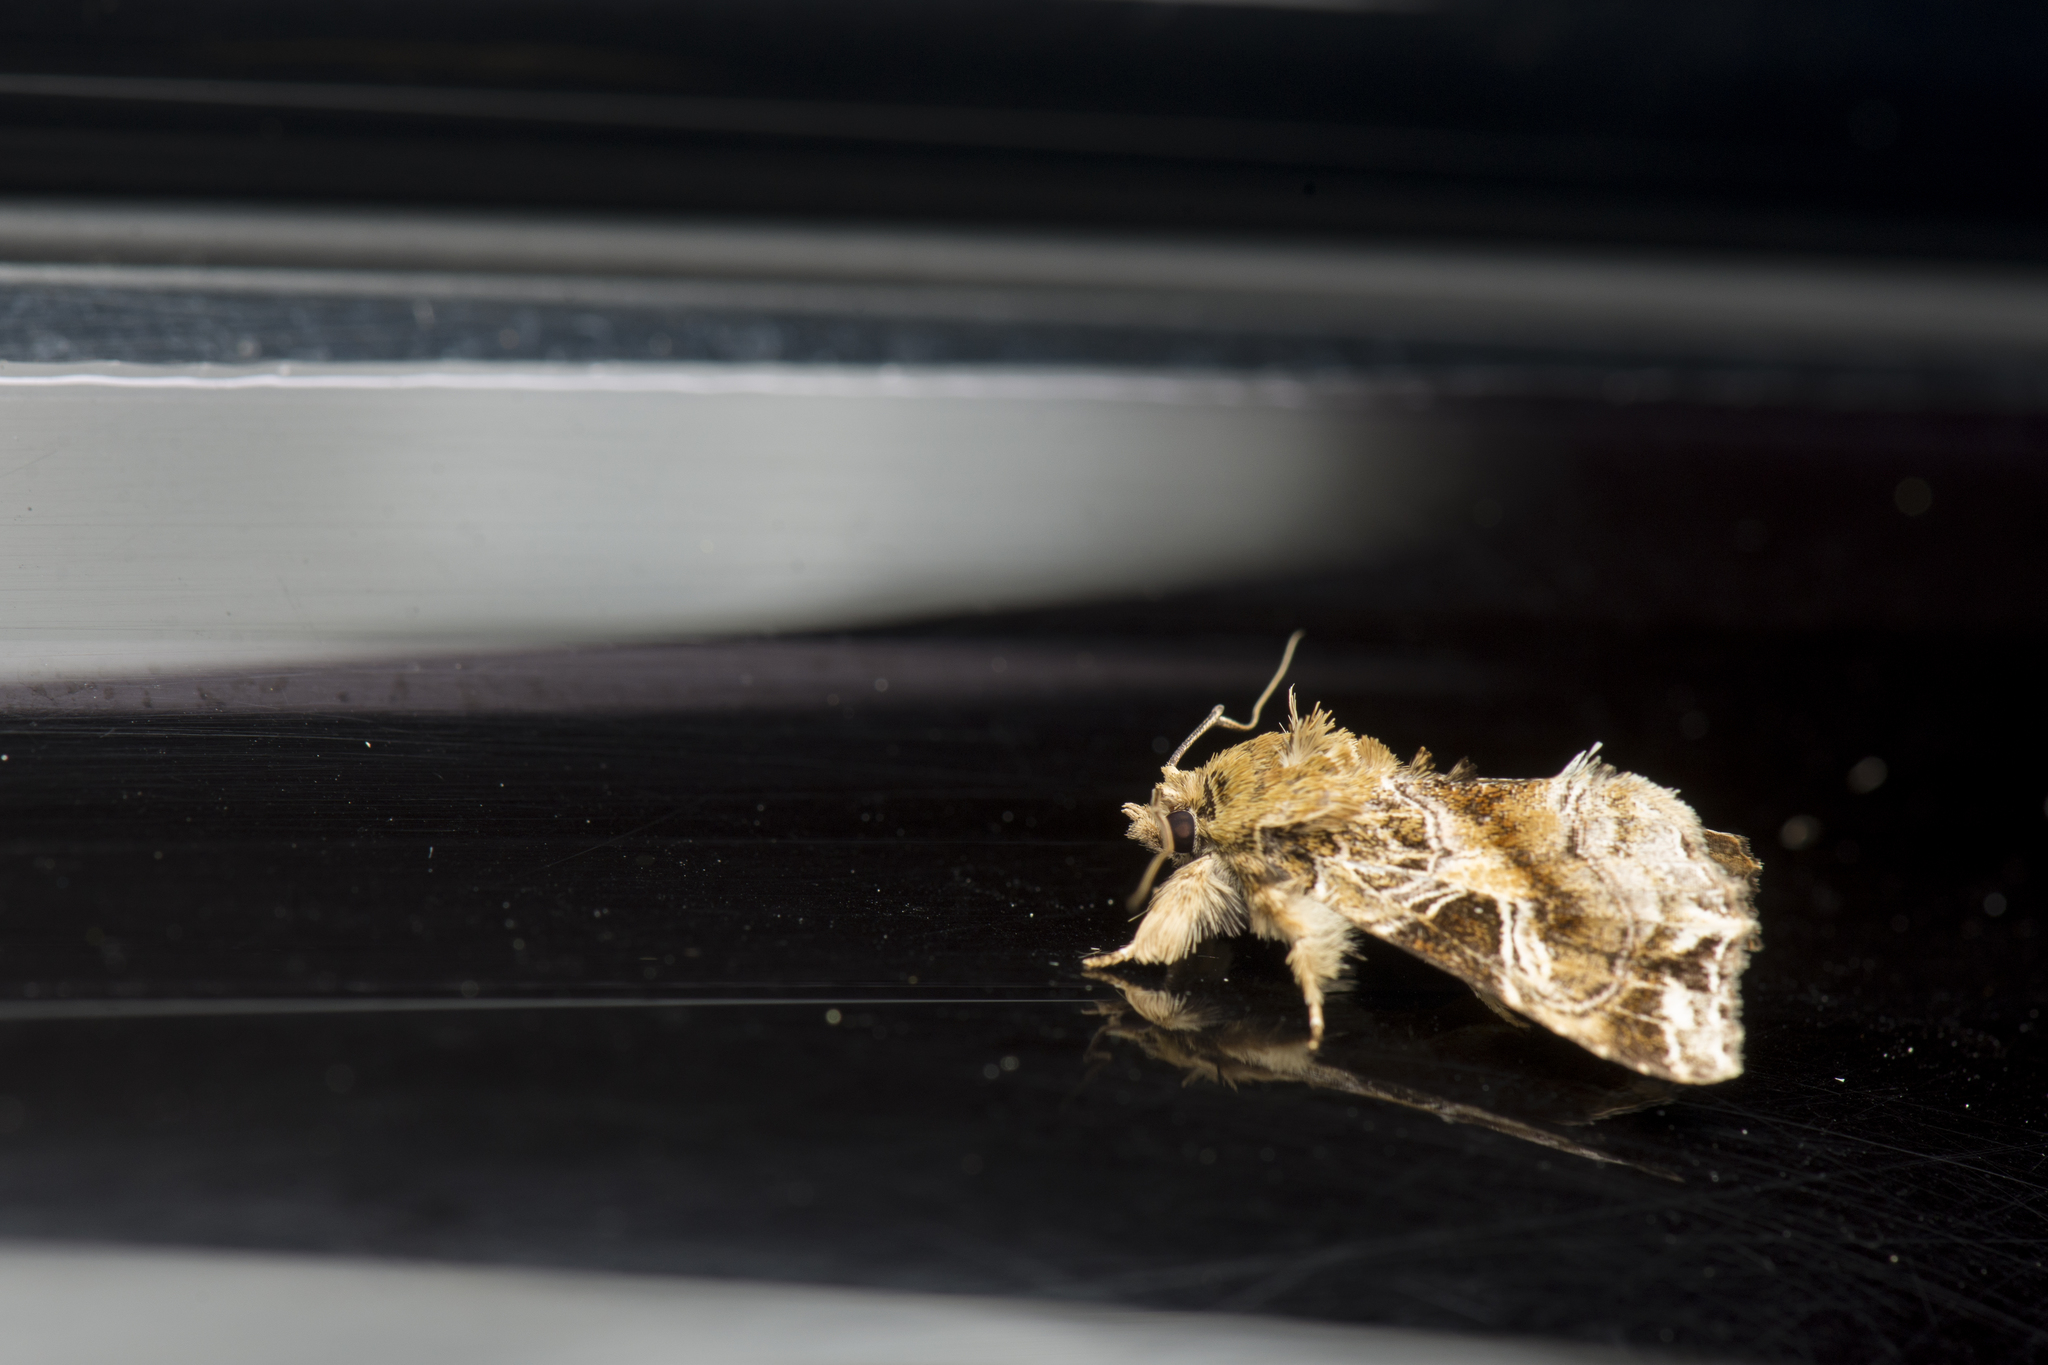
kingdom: Animalia
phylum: Arthropoda
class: Insecta
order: Lepidoptera
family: Noctuidae
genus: Callopistria
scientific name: Callopistria phaeogona
